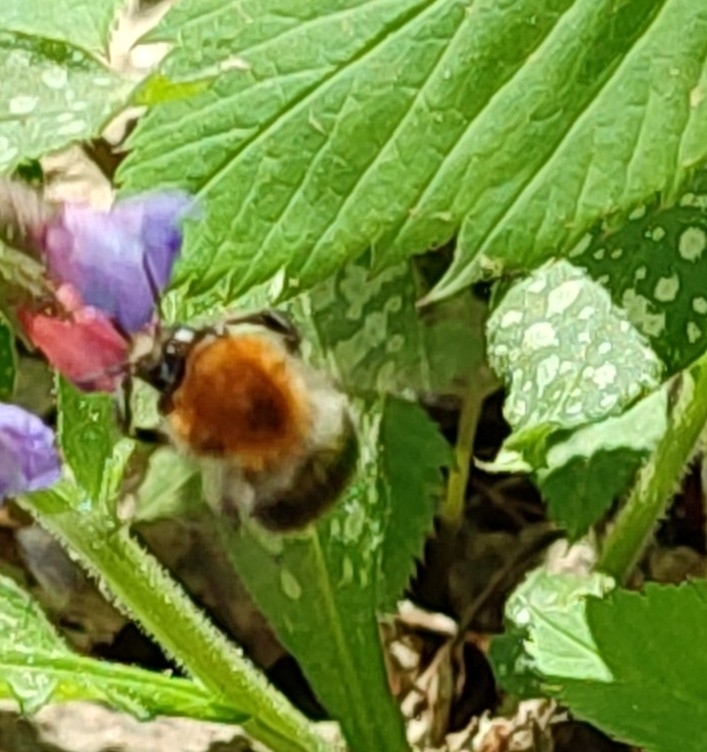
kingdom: Animalia
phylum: Arthropoda
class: Insecta
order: Hymenoptera
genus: Thoracobombus
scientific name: Thoracobombus
